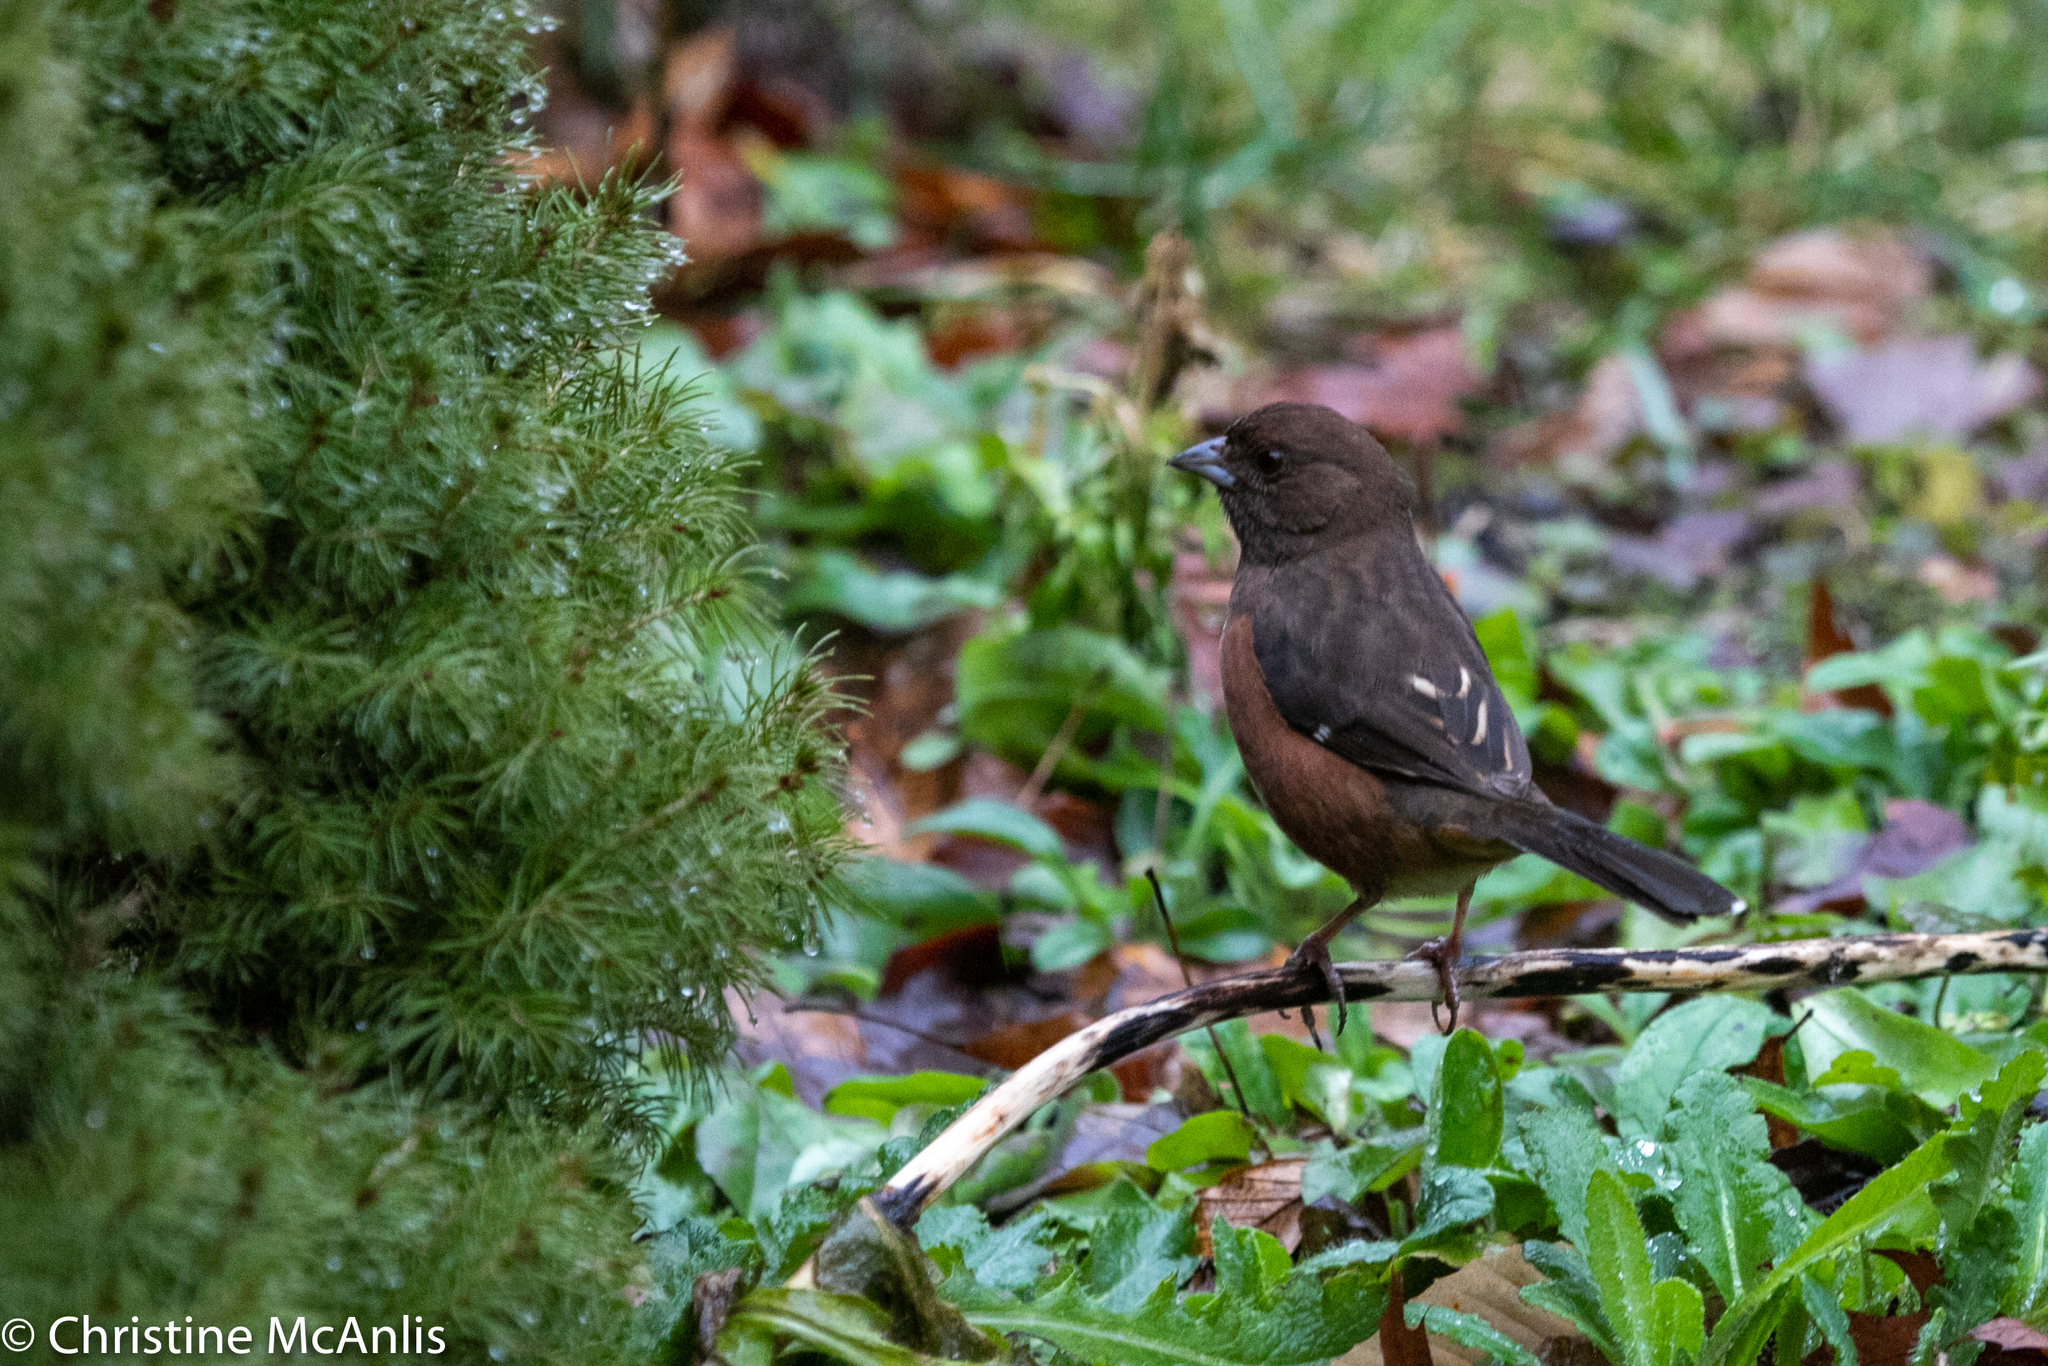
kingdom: Animalia
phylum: Chordata
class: Aves
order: Passeriformes
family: Passerellidae
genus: Pipilo
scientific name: Pipilo erythrophthalmus
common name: Eastern towhee
